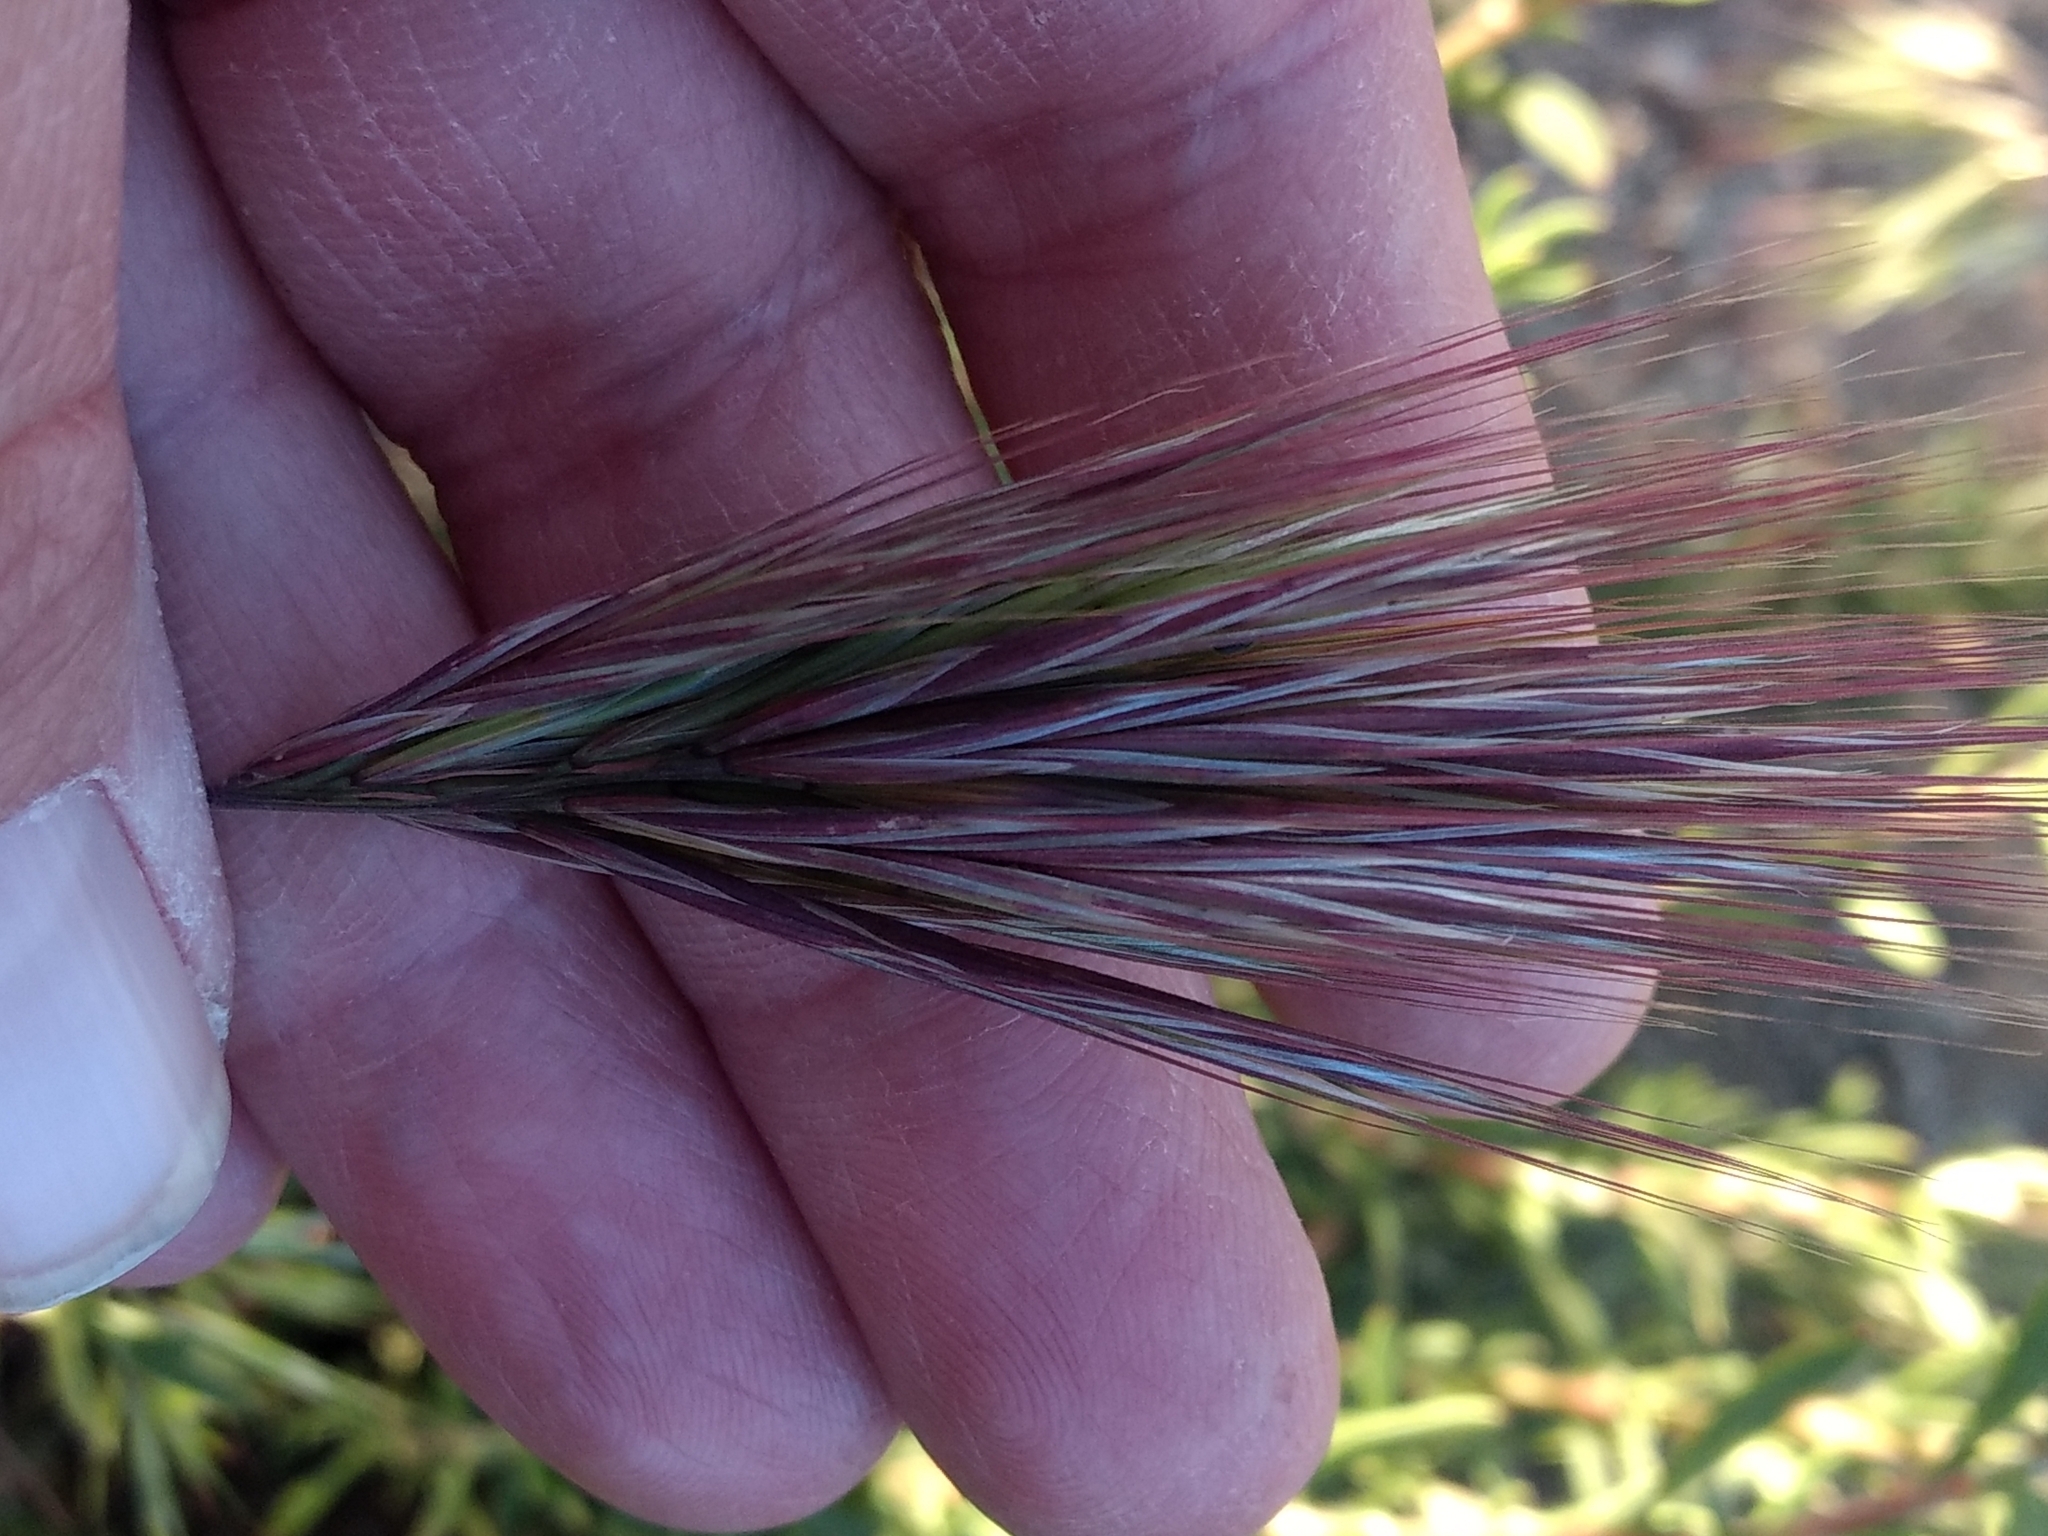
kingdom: Plantae
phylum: Tracheophyta
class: Liliopsida
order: Poales
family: Poaceae
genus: Bromus
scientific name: Bromus rubens
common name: Red brome
